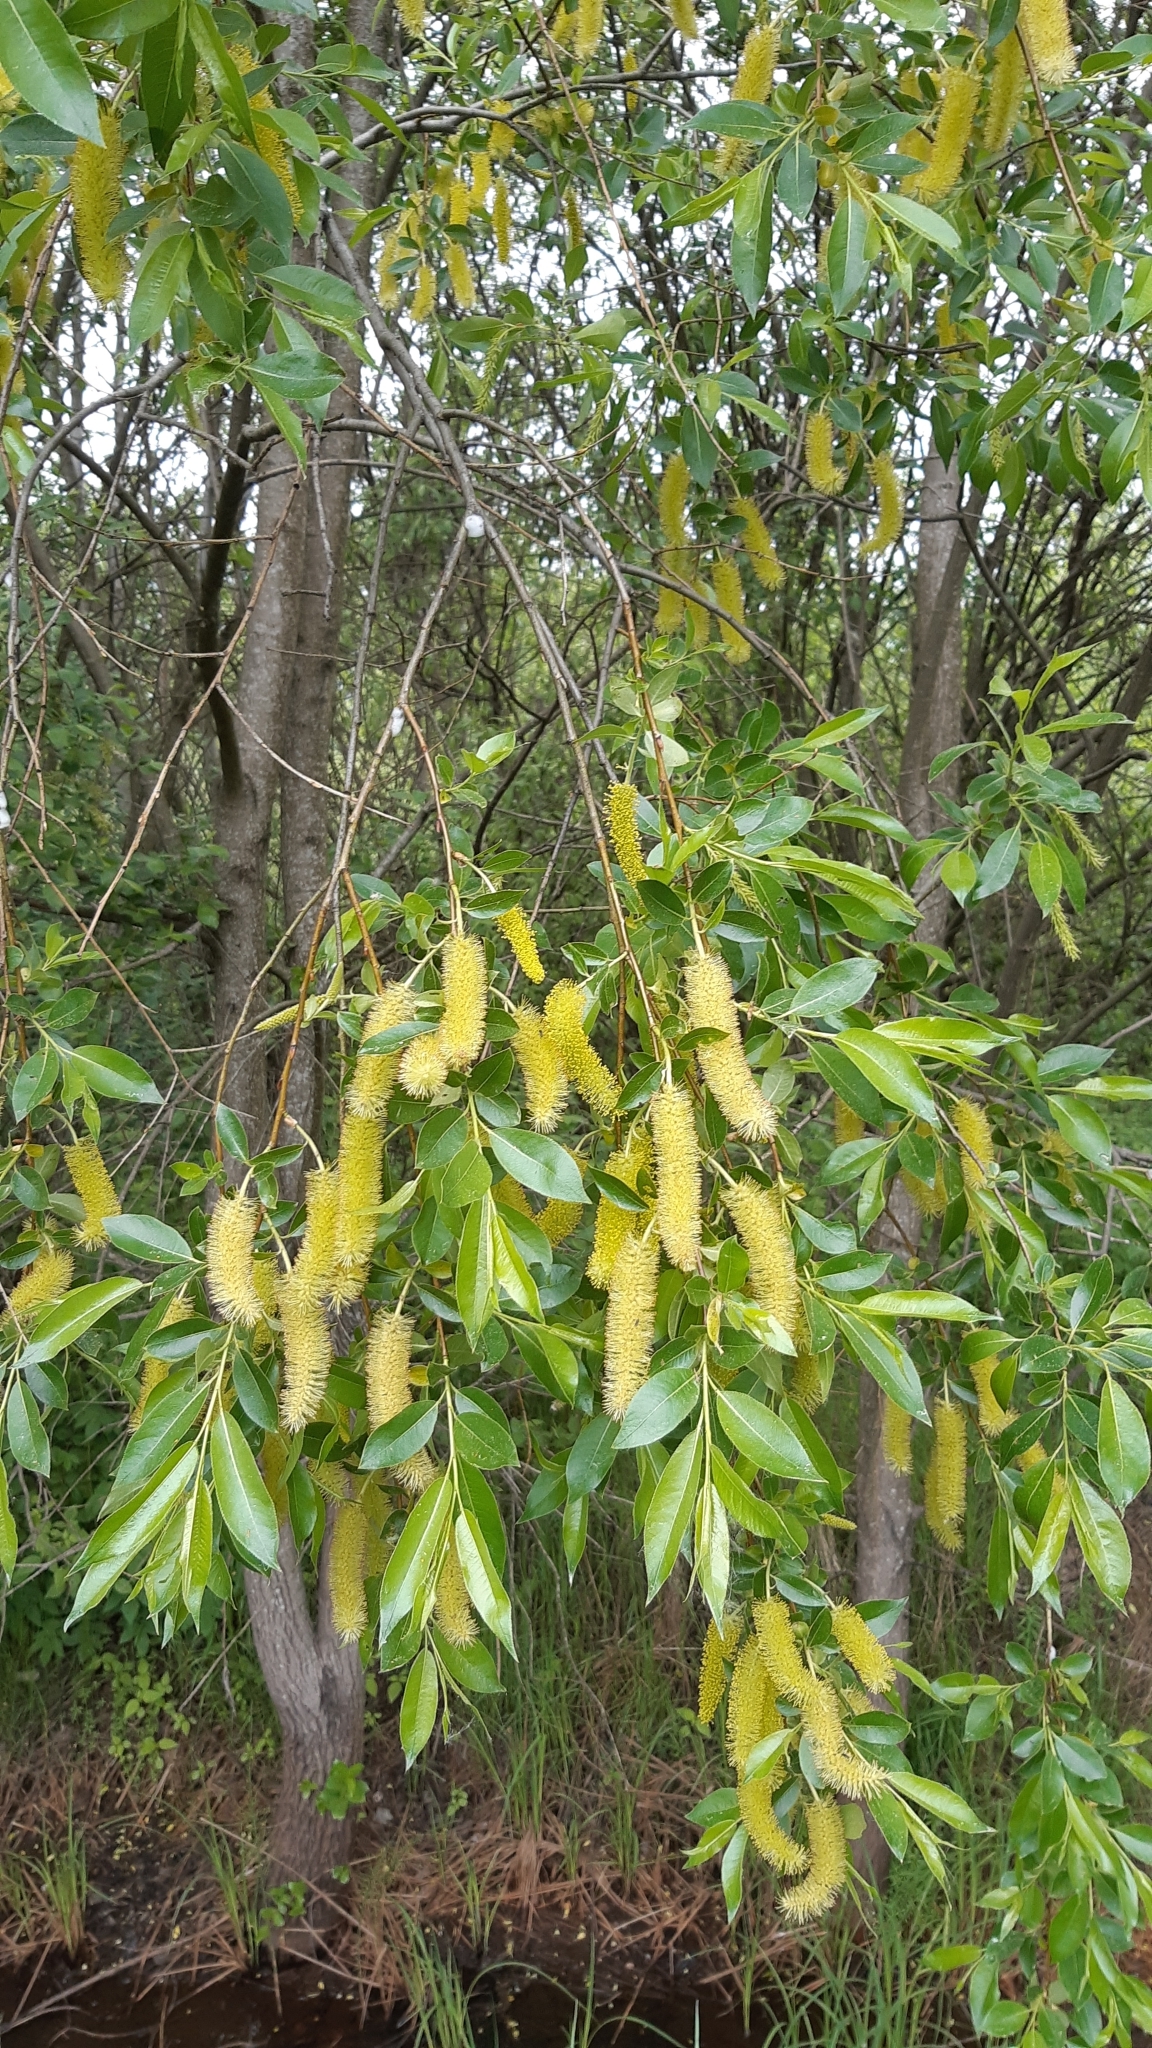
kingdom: Plantae
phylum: Tracheophyta
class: Magnoliopsida
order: Malpighiales
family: Salicaceae
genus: Salix
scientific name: Salix pentandra
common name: Bay willow
